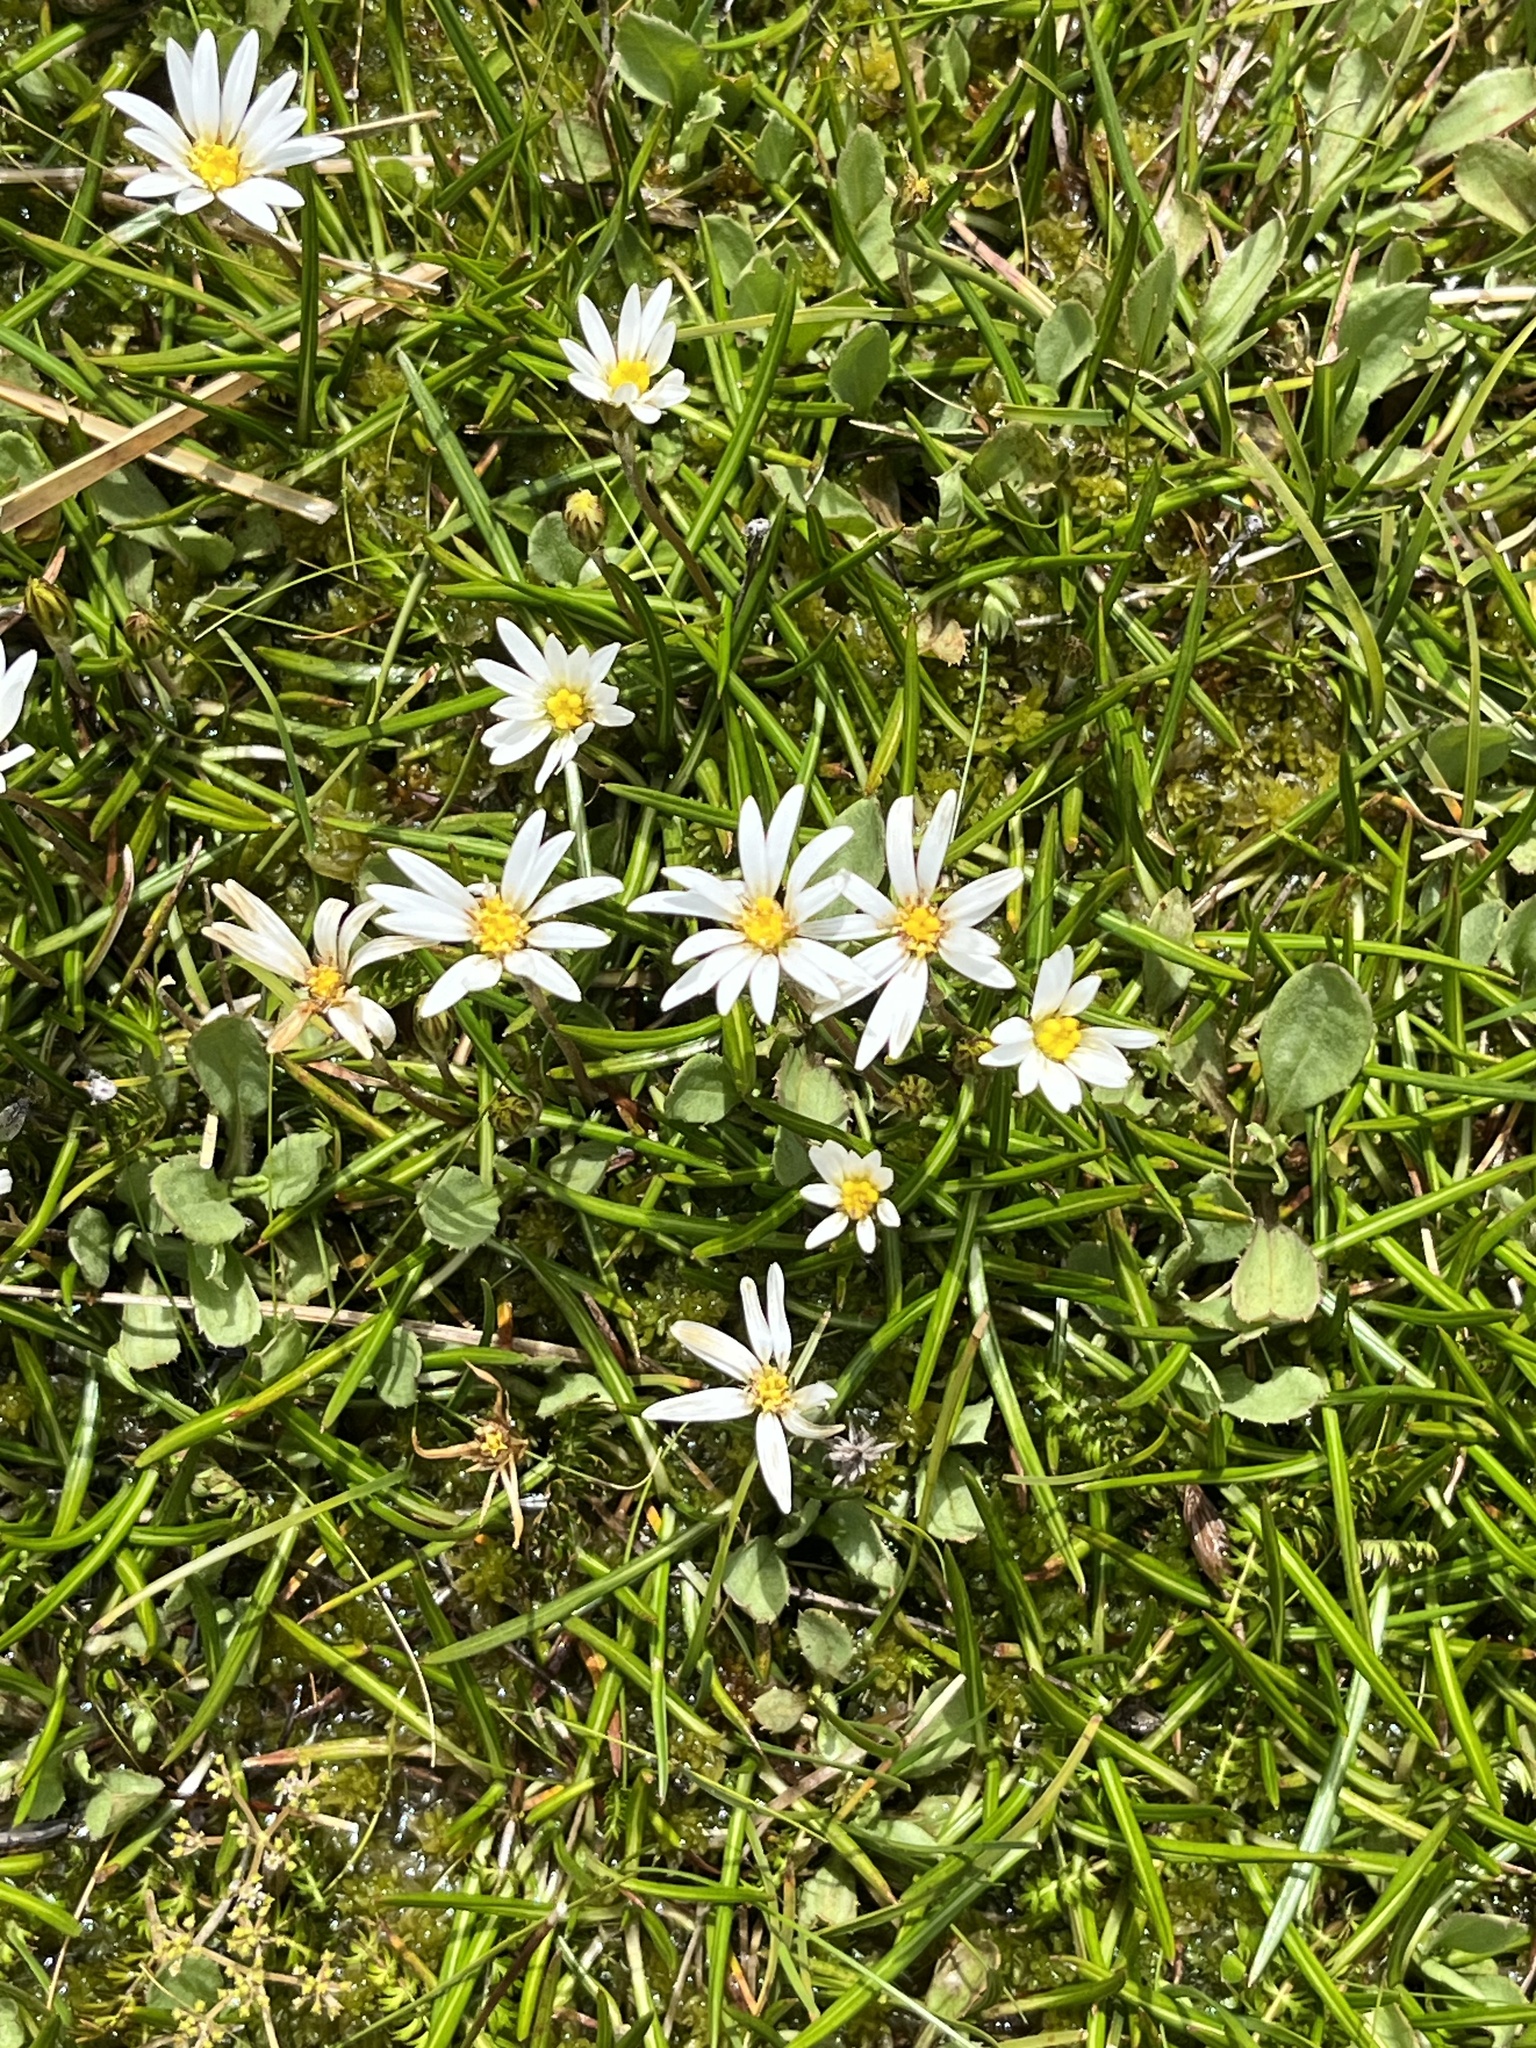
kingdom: Plantae
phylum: Tracheophyta
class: Magnoliopsida
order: Asterales
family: Asteraceae
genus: Celmisia
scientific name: Celmisia alpina
